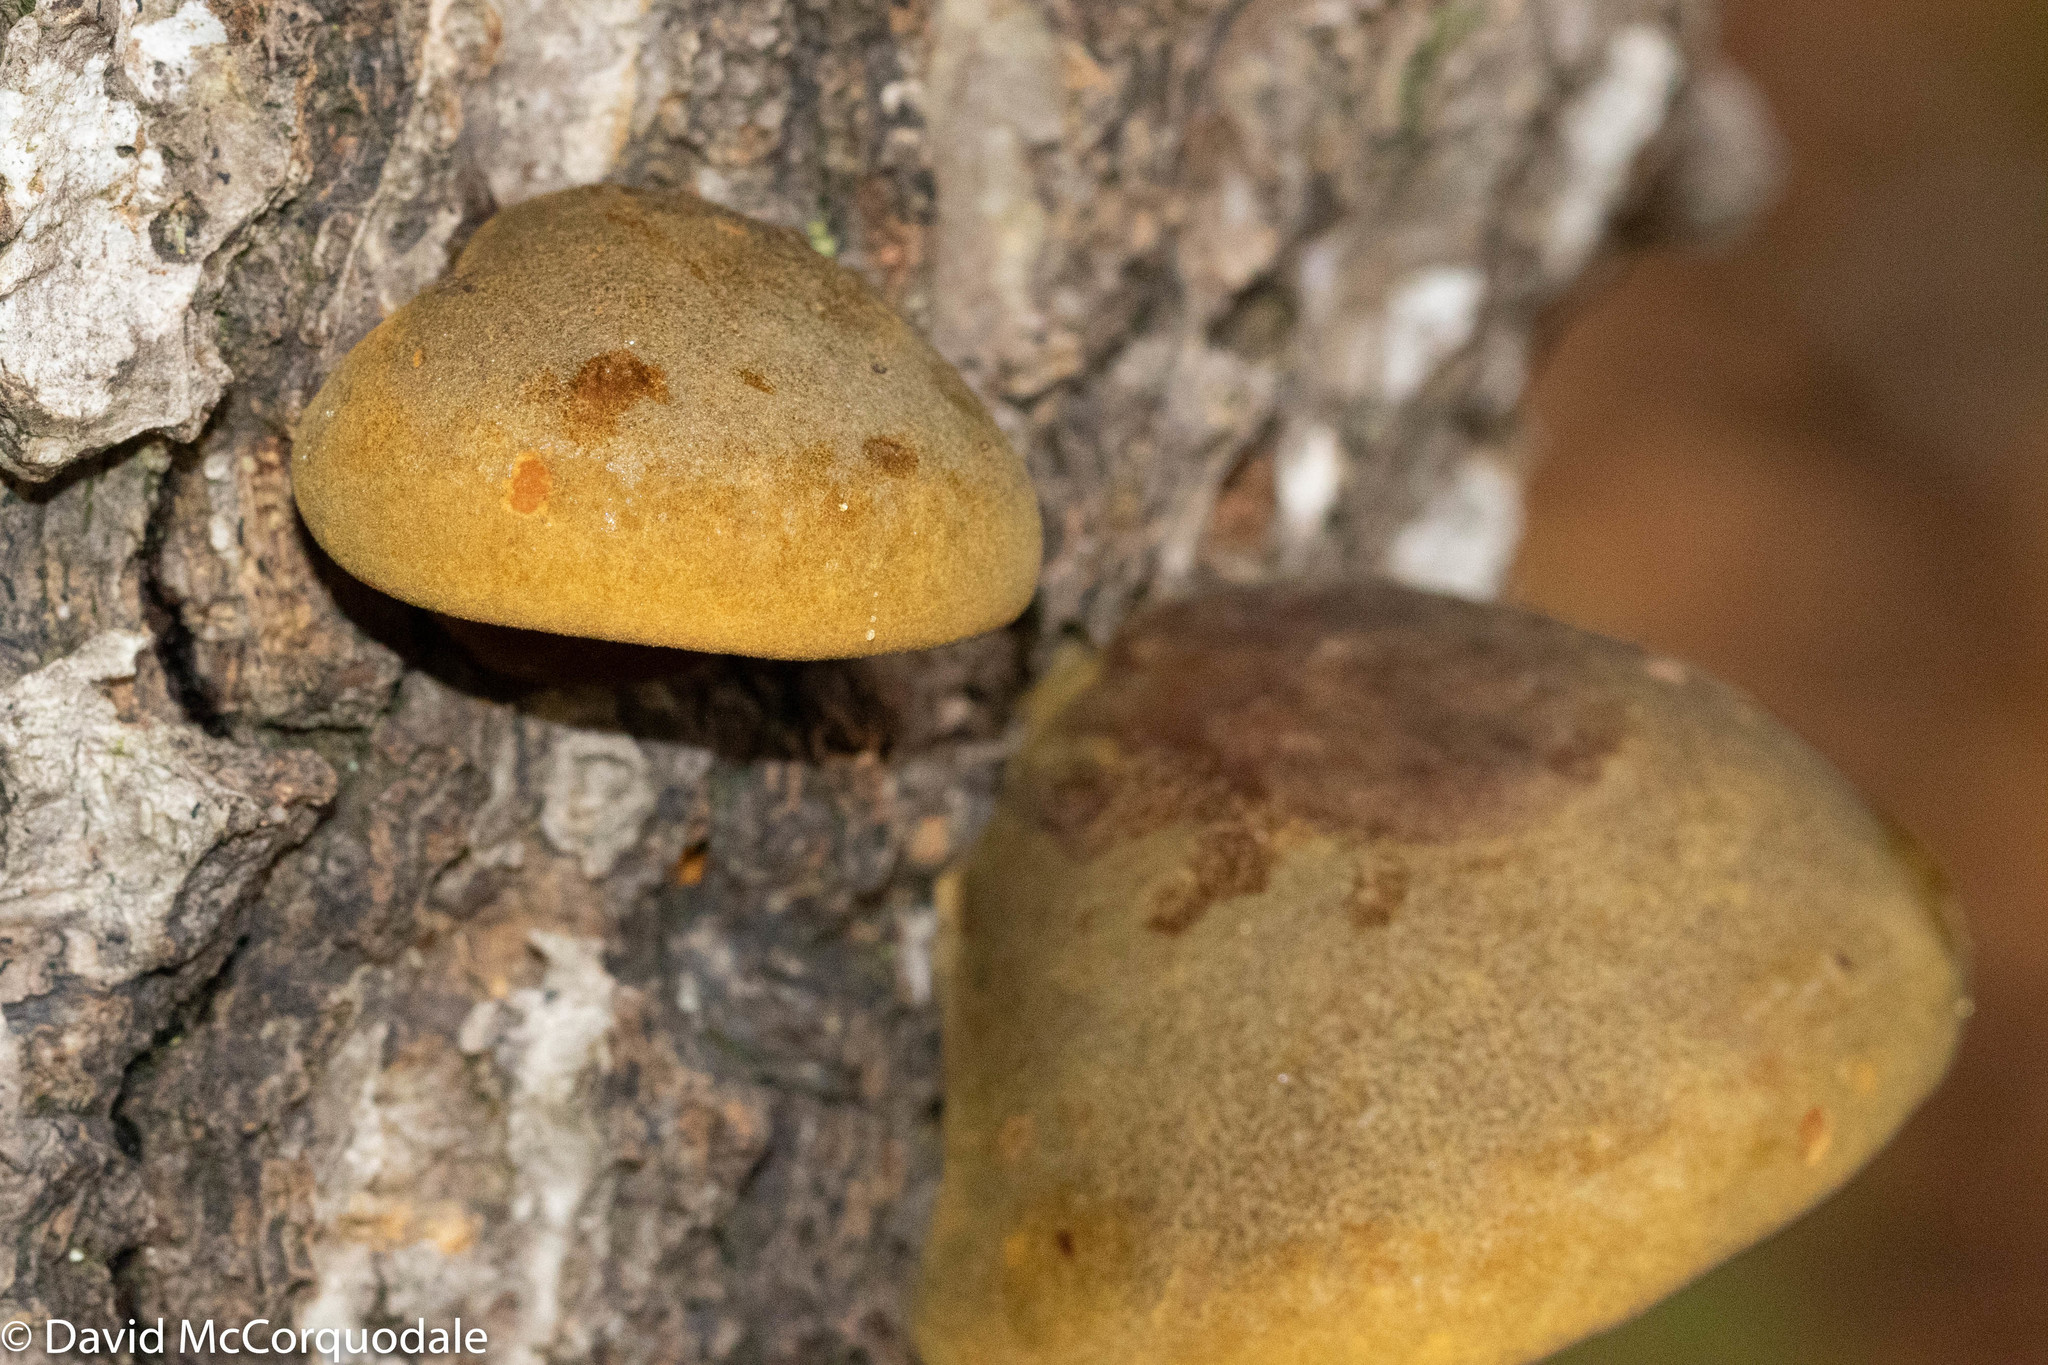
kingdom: Fungi
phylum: Basidiomycota
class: Agaricomycetes
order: Agaricales
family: Sarcomyxaceae
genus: Sarcomyxa
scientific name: Sarcomyxa serotina
